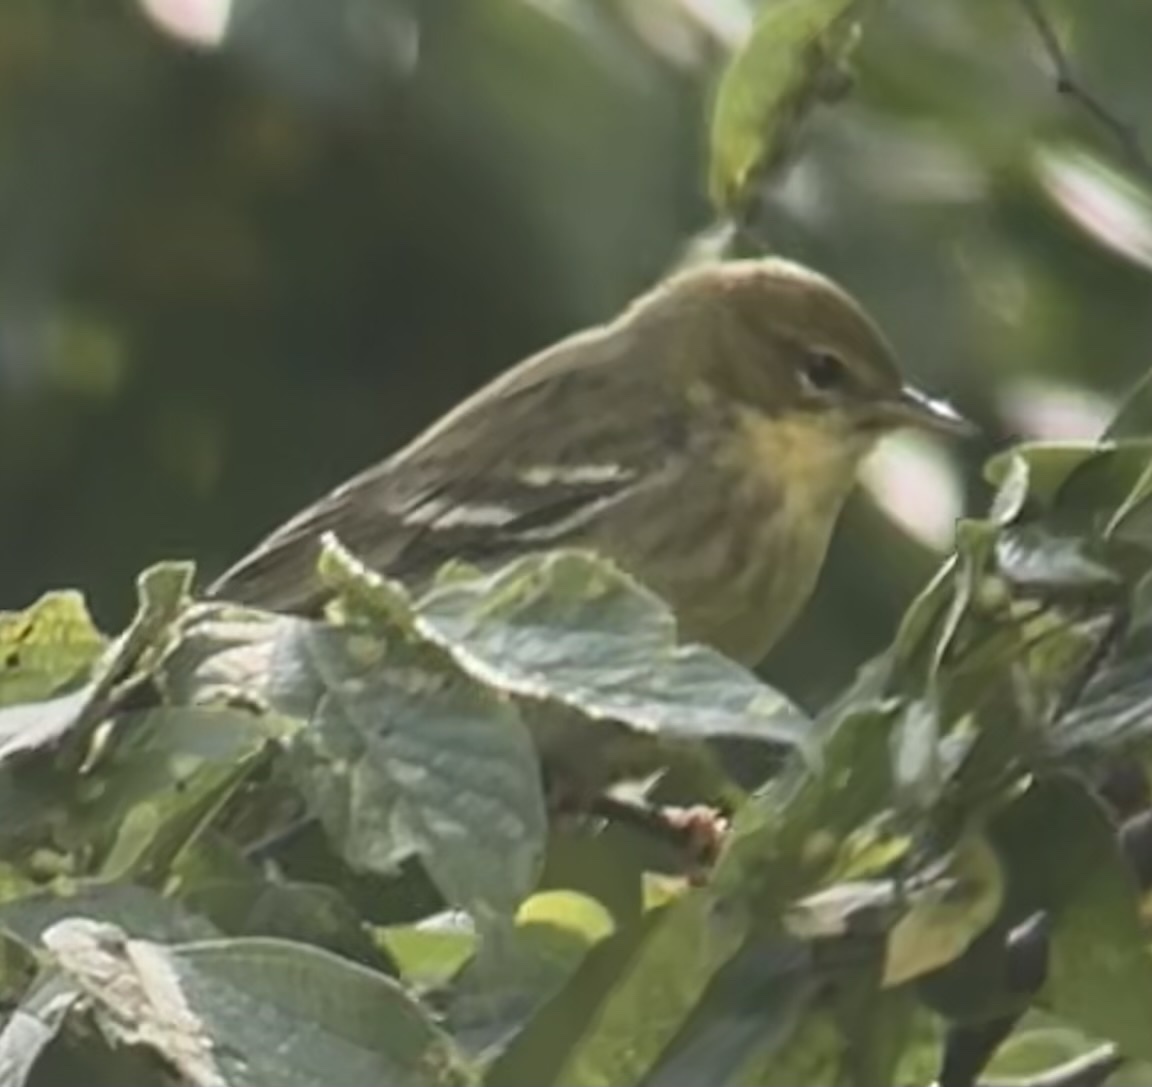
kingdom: Animalia
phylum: Chordata
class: Aves
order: Passeriformes
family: Parulidae
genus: Setophaga
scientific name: Setophaga striata
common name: Blackpoll warbler
